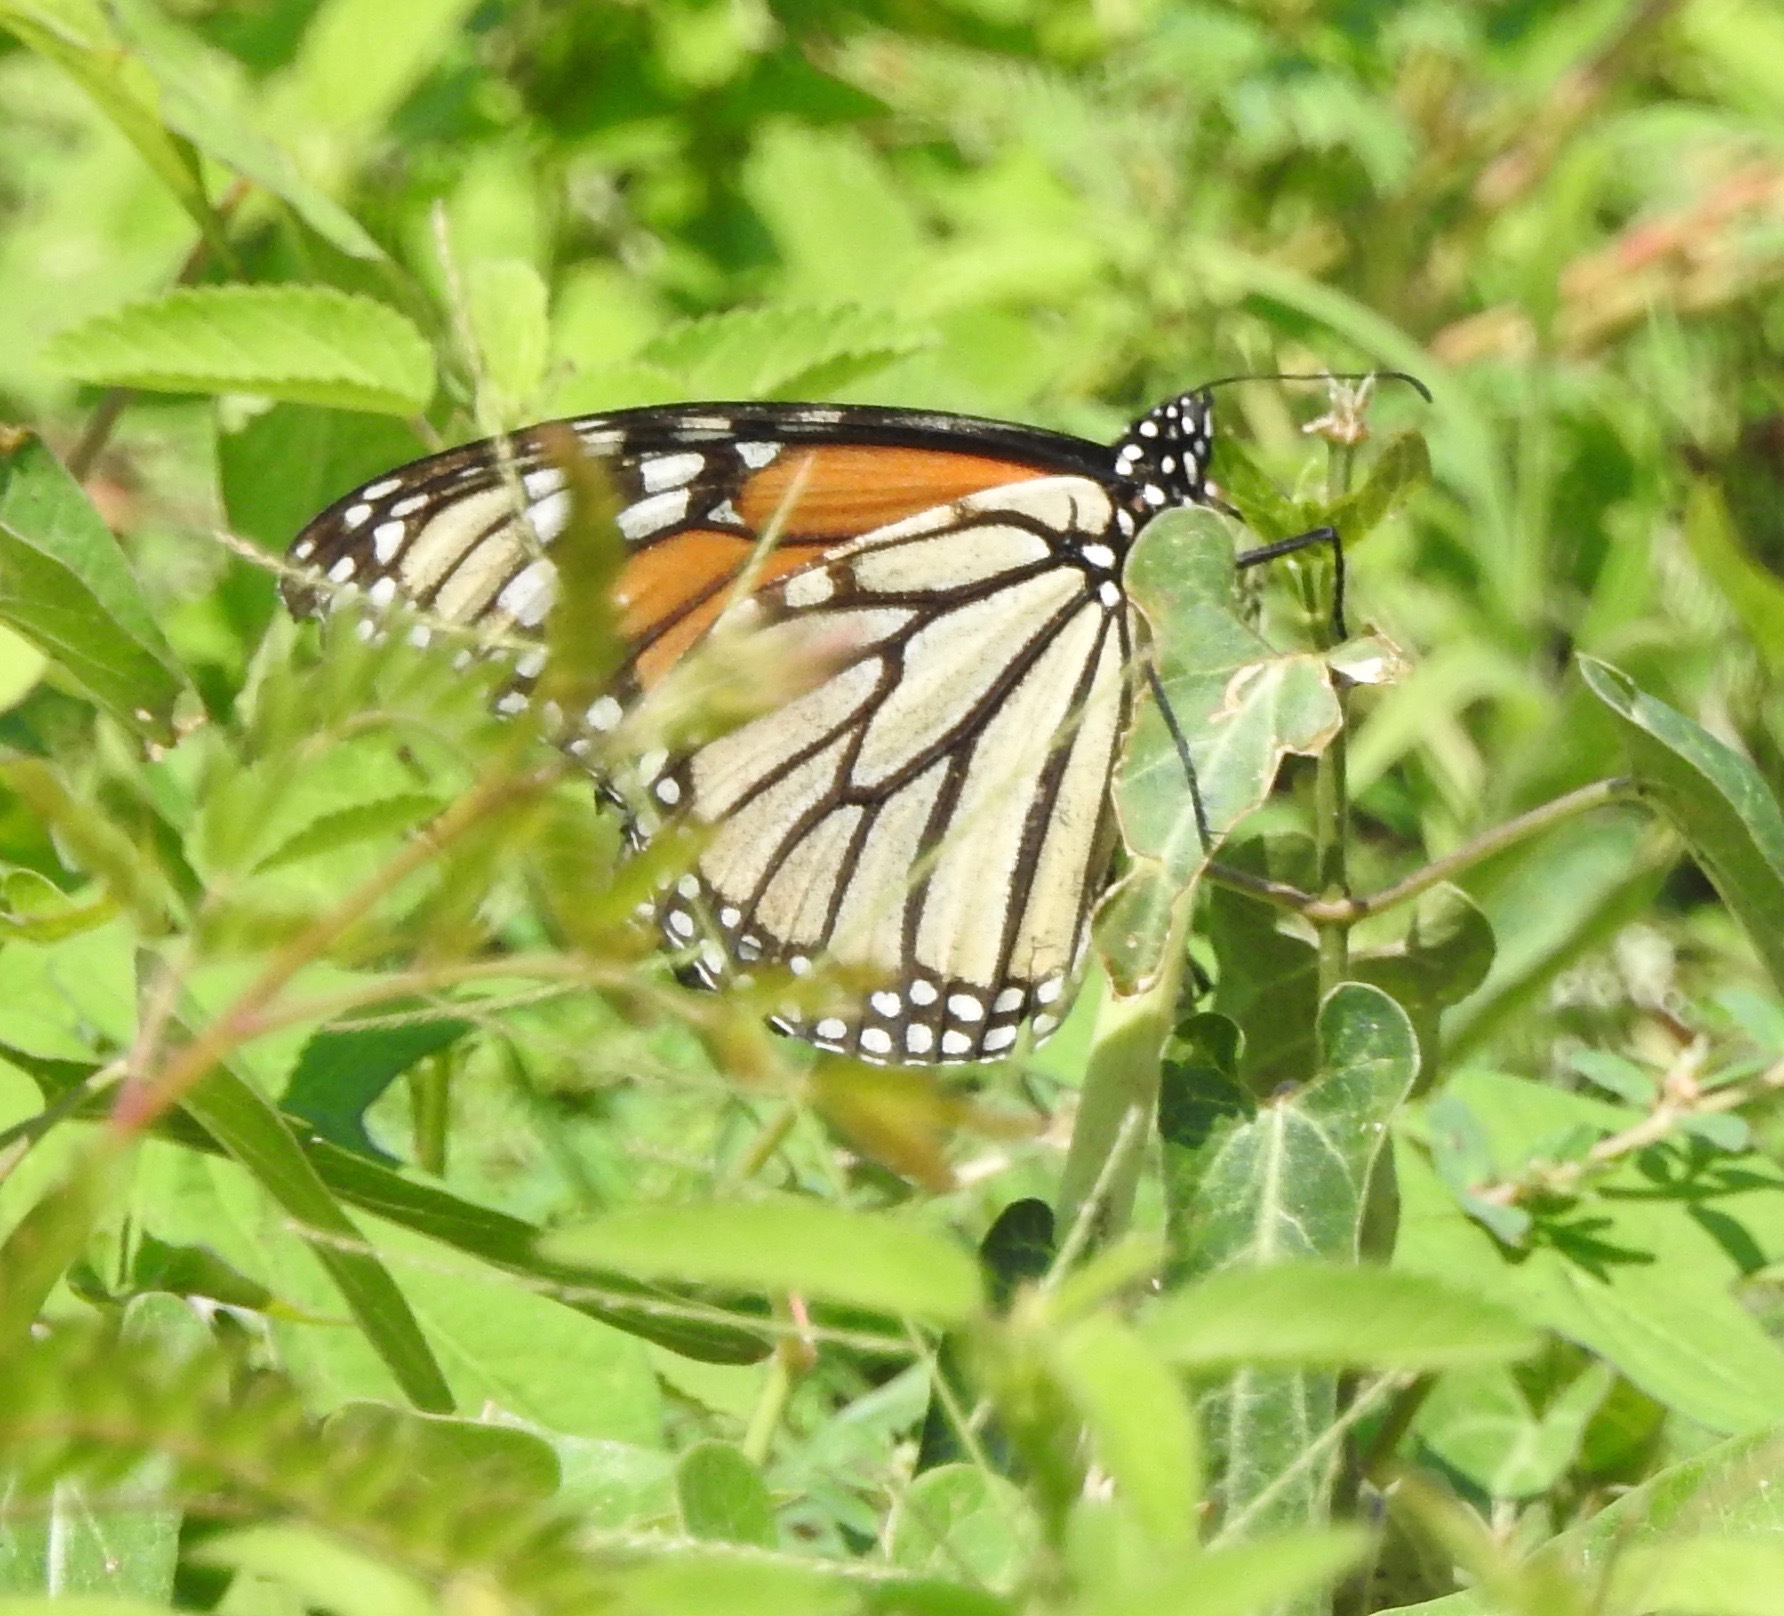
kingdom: Animalia
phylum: Arthropoda
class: Insecta
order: Lepidoptera
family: Nymphalidae
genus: Danaus
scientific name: Danaus plexippus
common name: Monarch
